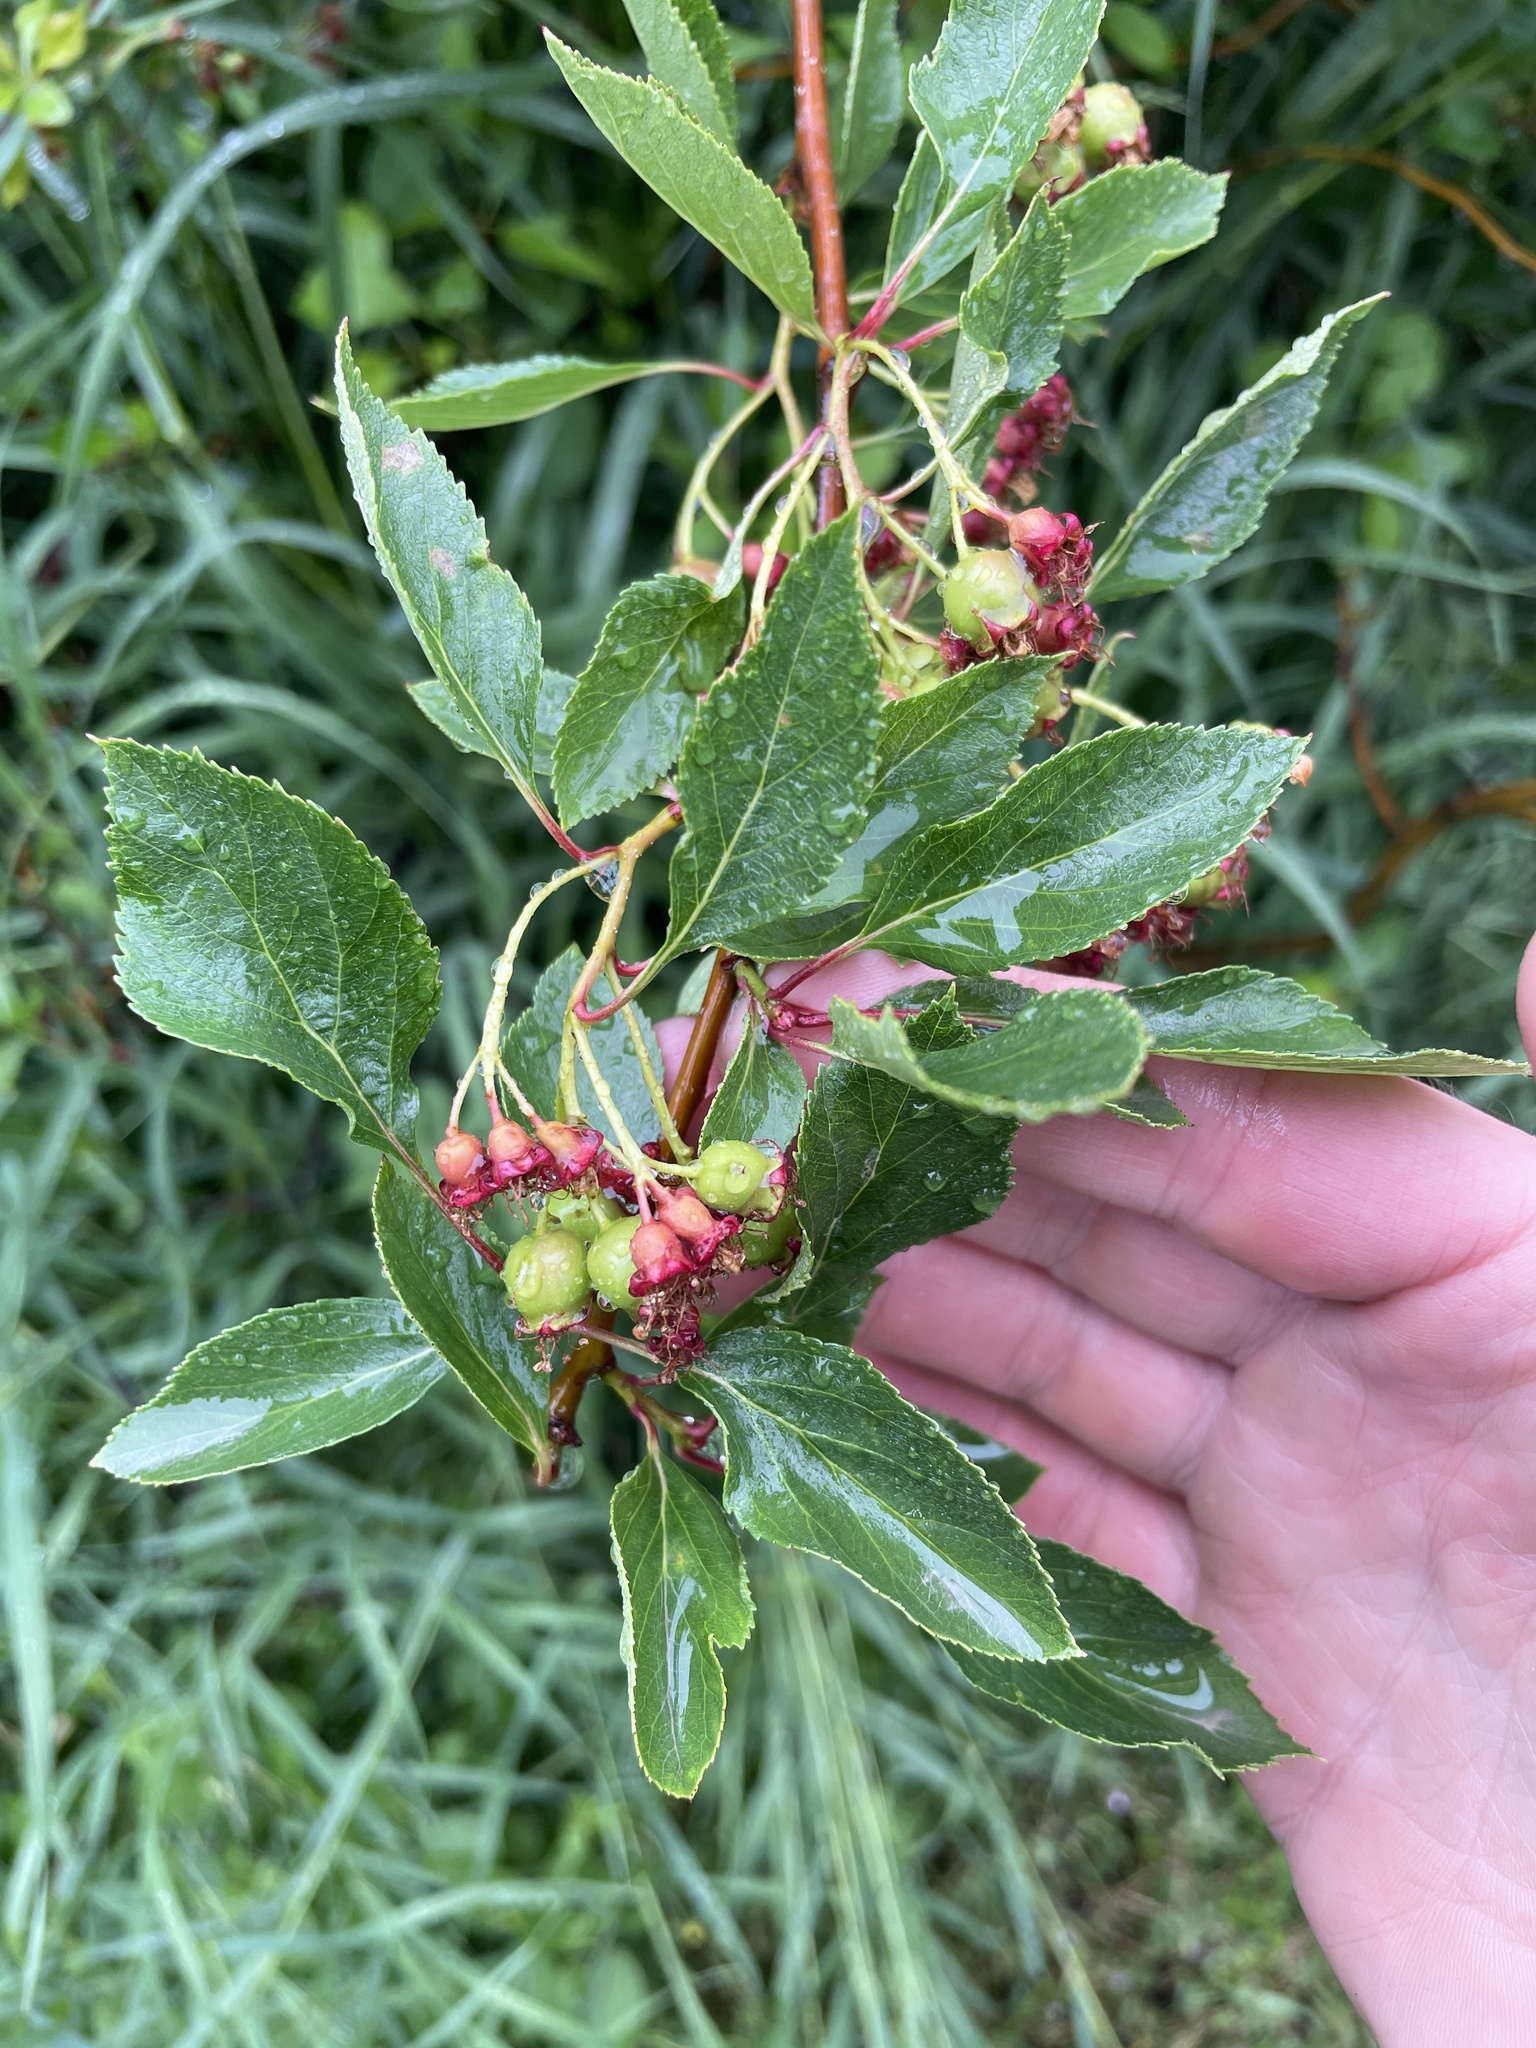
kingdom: Plantae
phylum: Tracheophyta
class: Magnoliopsida
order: Rosales
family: Rosaceae
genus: Crataegus
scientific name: Crataegus douglasii
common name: Black hawthorn
